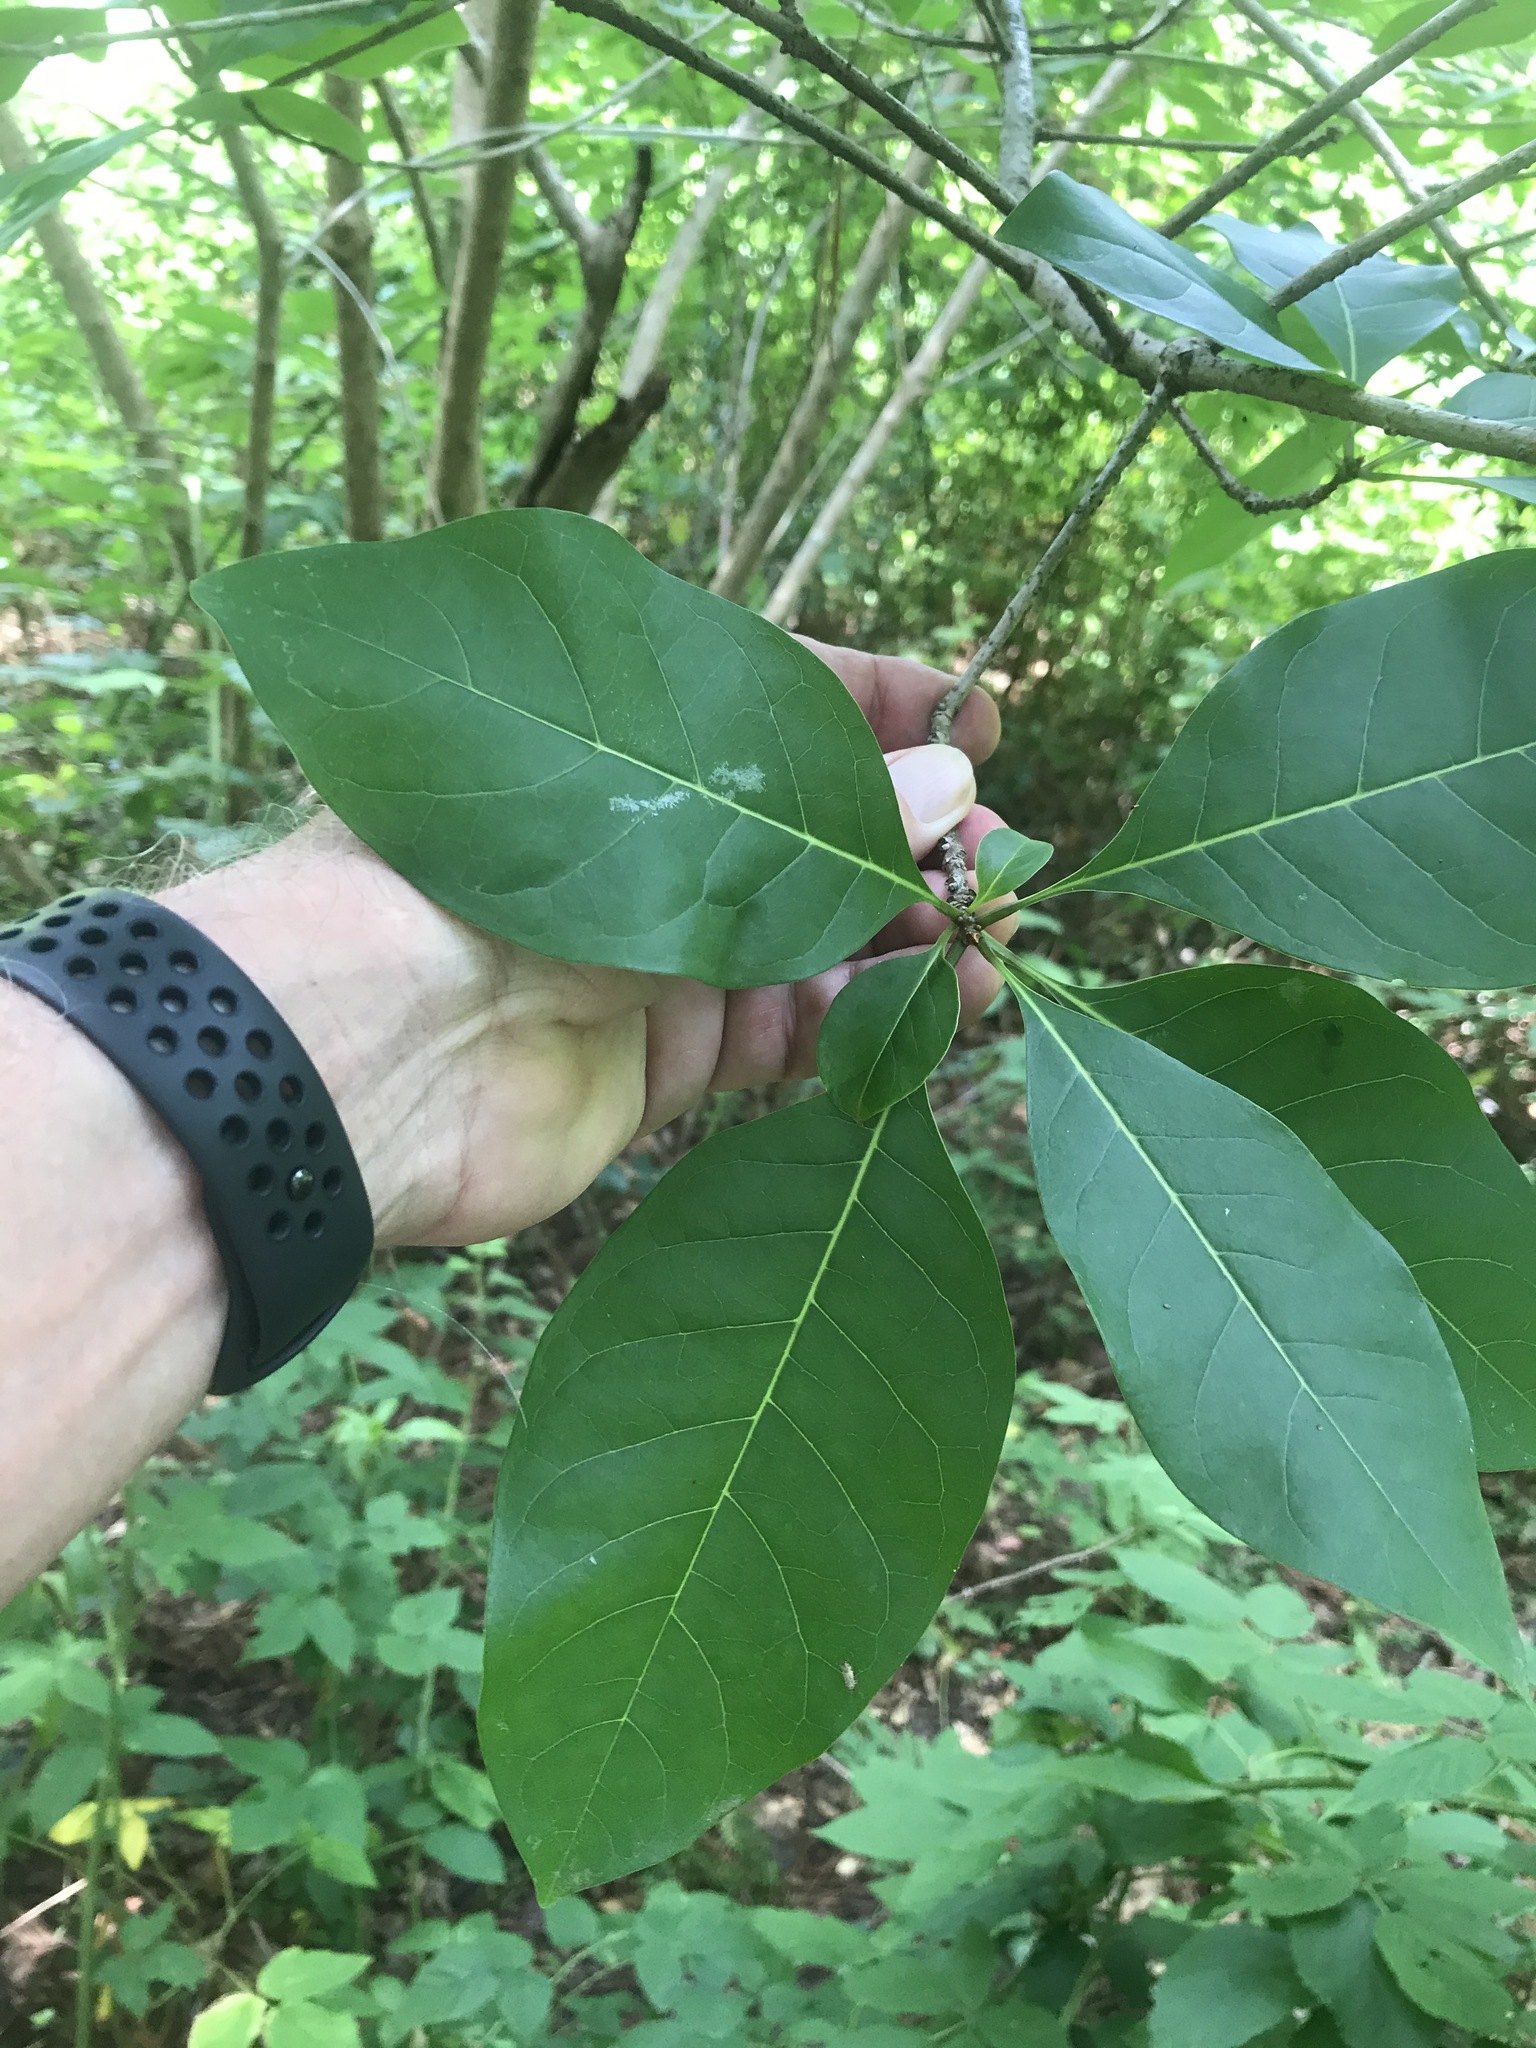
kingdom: Plantae
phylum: Tracheophyta
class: Magnoliopsida
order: Lamiales
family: Oleaceae
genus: Fraxinus
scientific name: Fraxinus americana
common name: White ash
